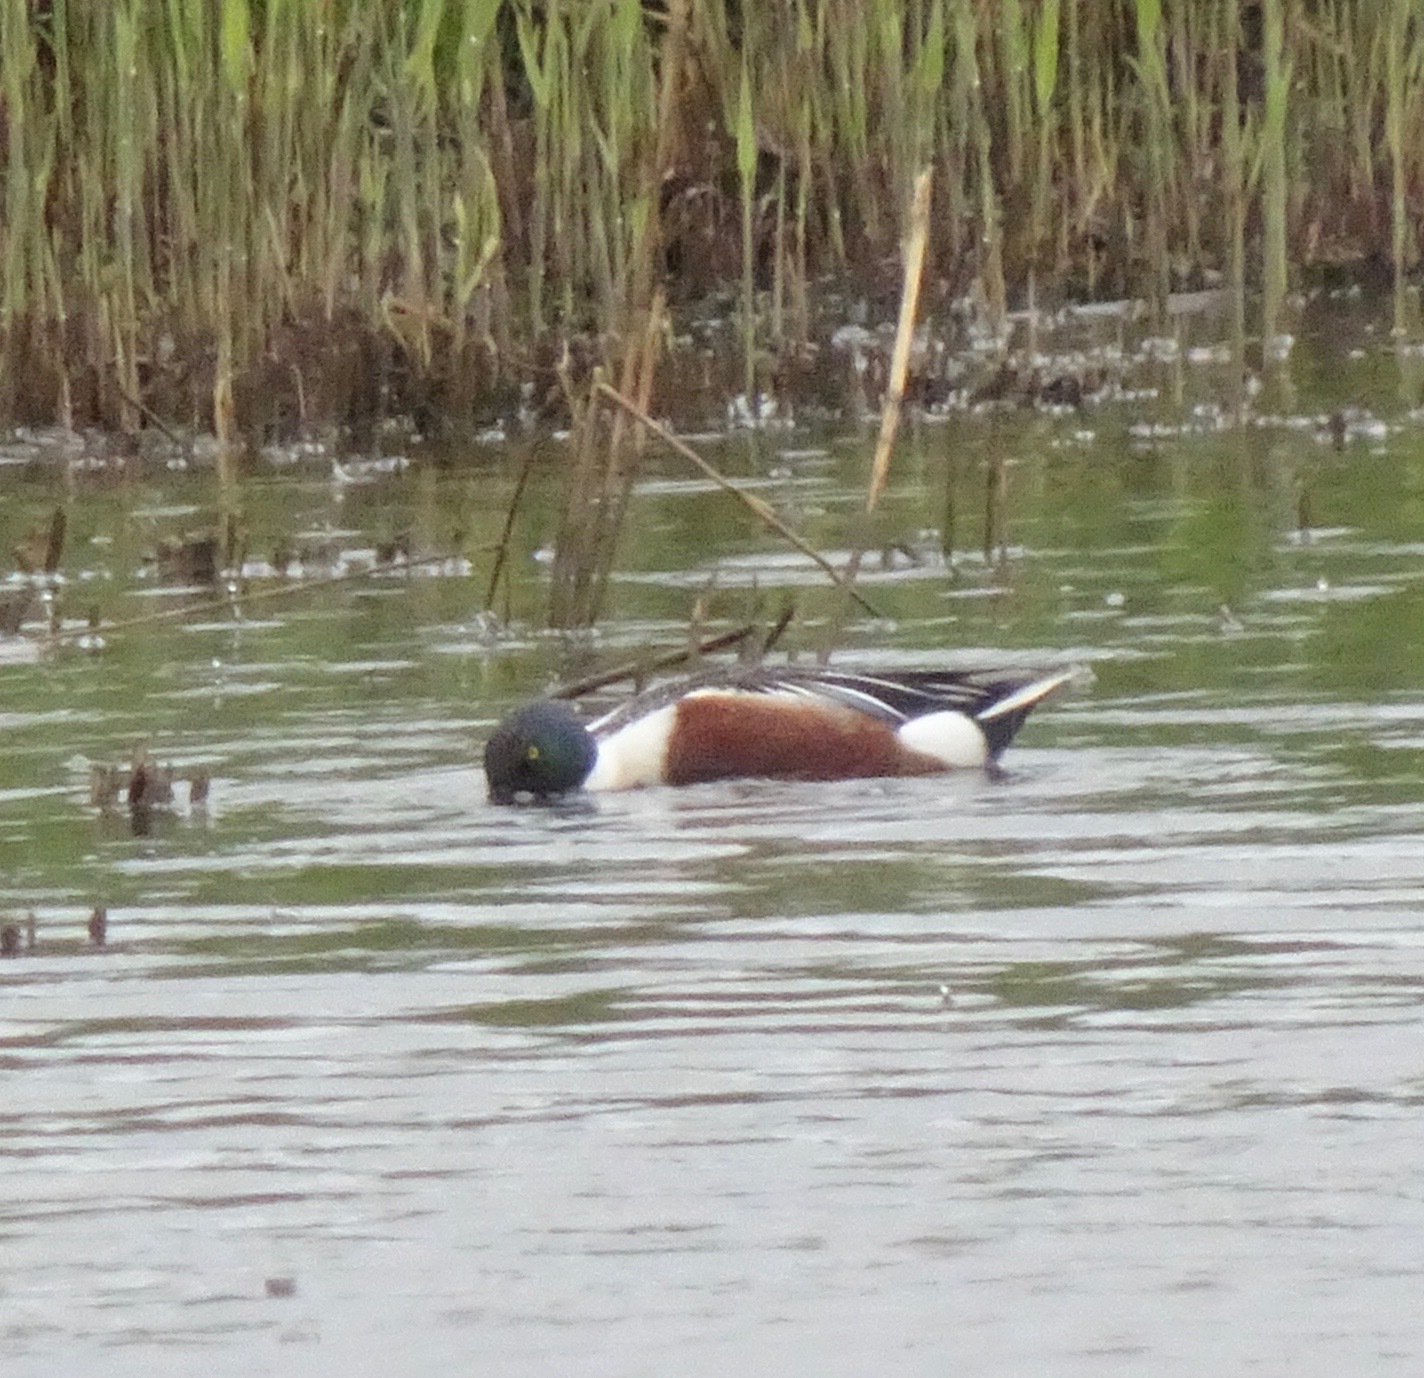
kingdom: Animalia
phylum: Chordata
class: Aves
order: Anseriformes
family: Anatidae
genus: Spatula
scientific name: Spatula clypeata
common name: Northern shoveler
